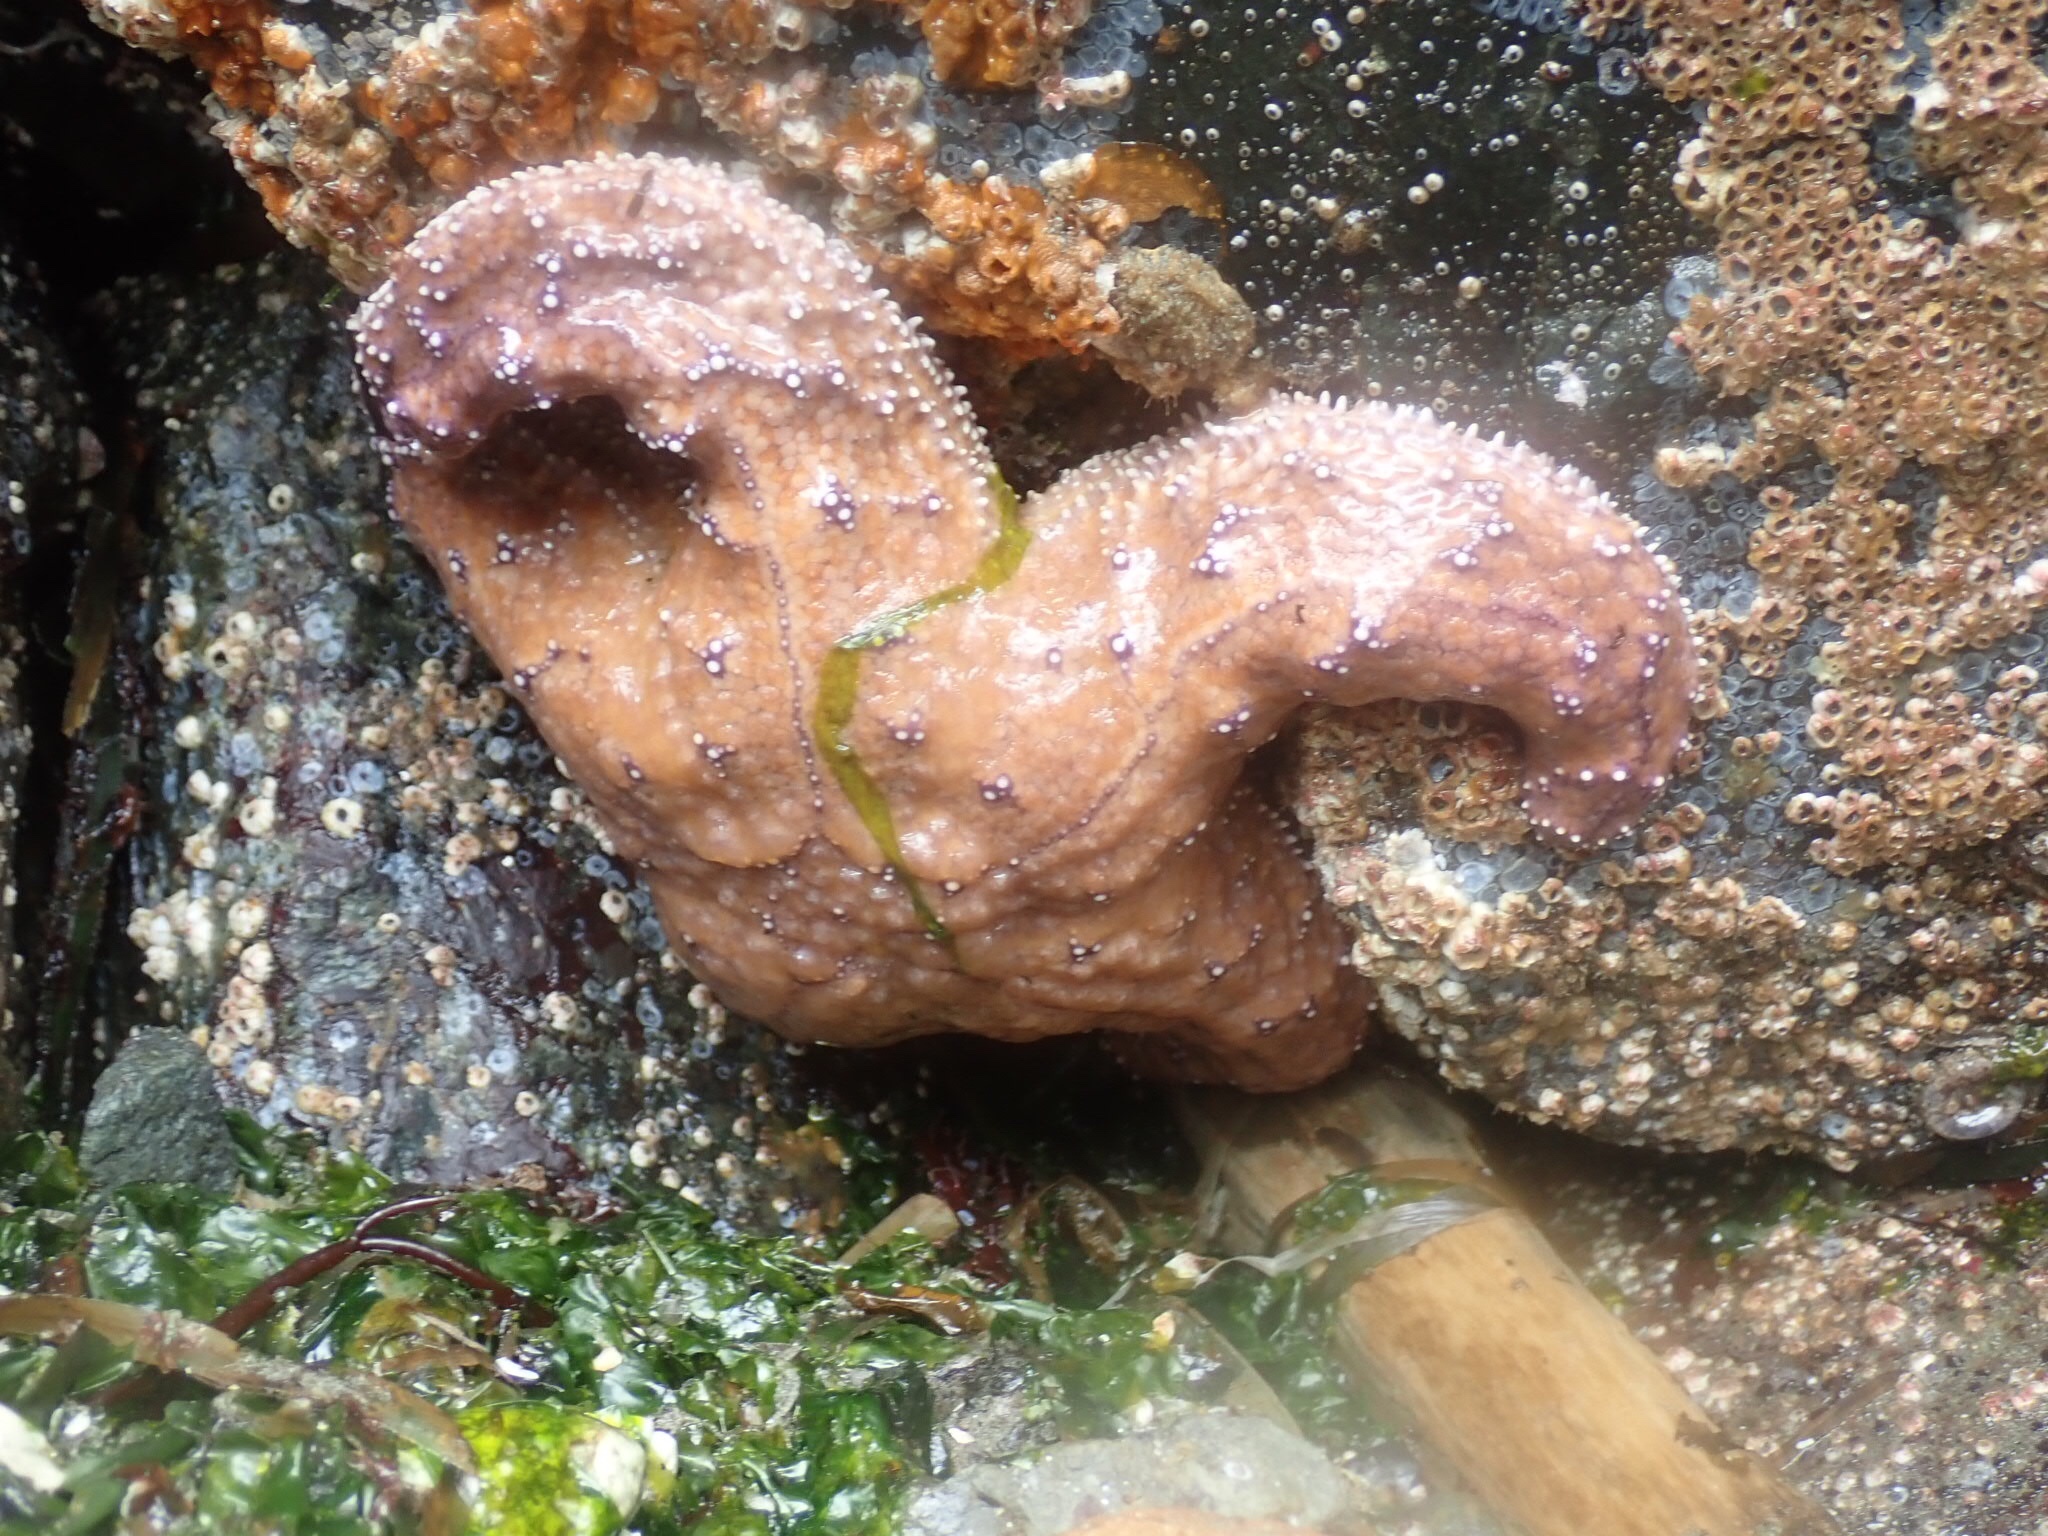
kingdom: Animalia
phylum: Echinodermata
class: Asteroidea
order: Forcipulatida
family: Asteriidae
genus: Pisaster
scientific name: Pisaster ochraceus
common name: Ochre stars
